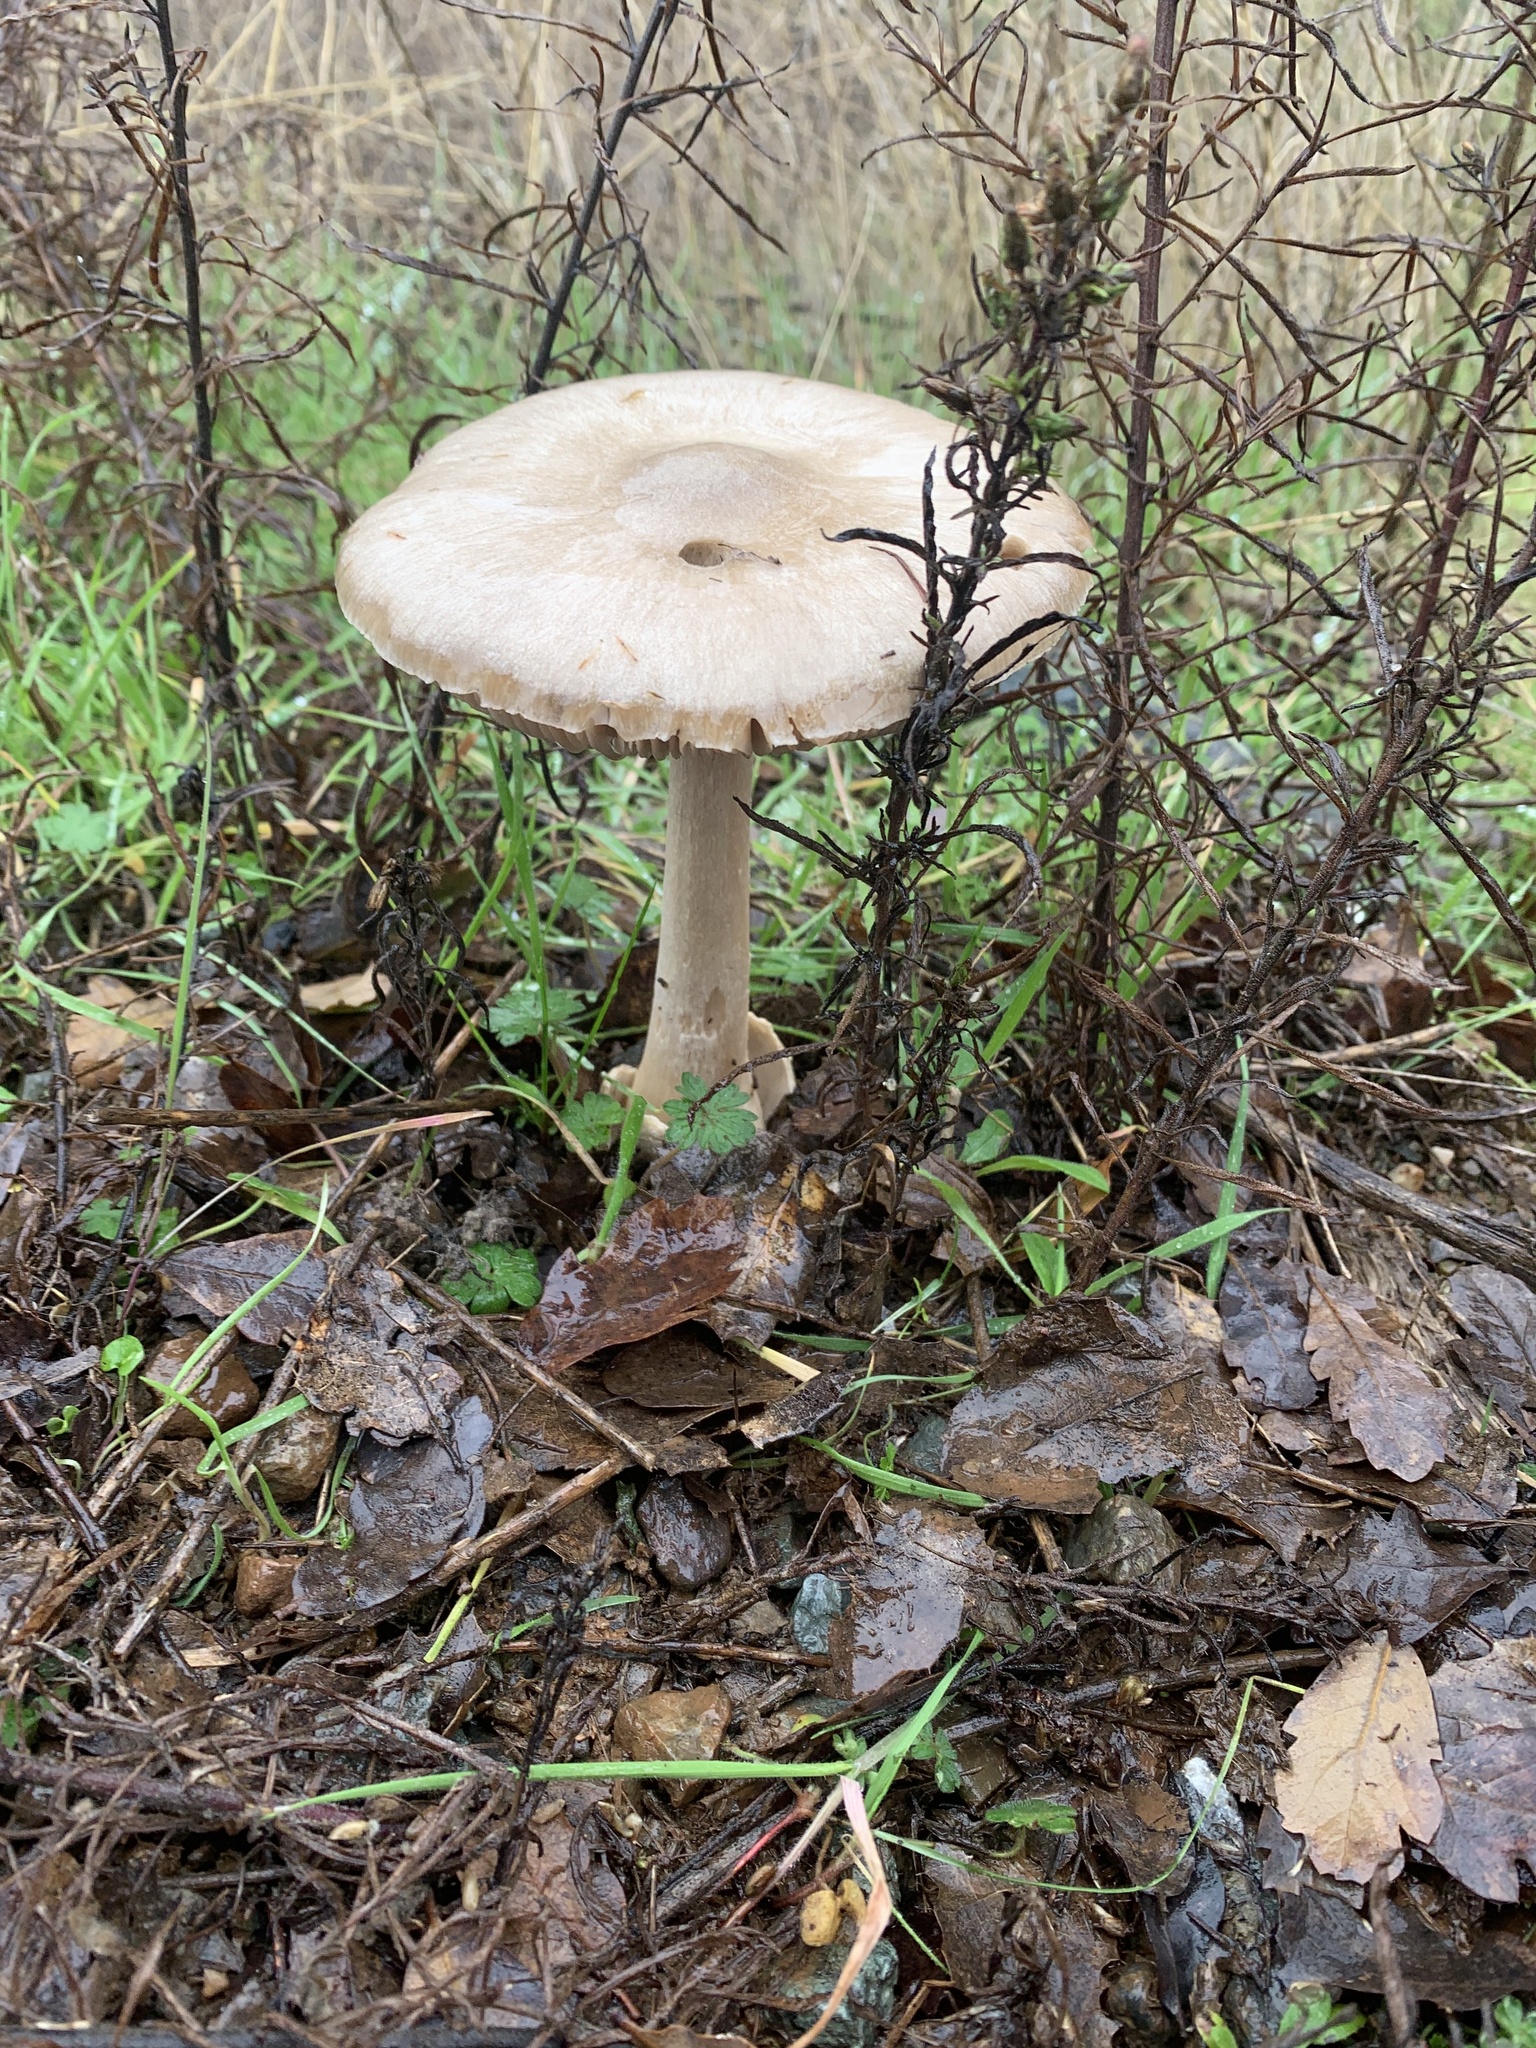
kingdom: Fungi
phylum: Basidiomycota
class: Agaricomycetes
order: Agaricales
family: Pluteaceae
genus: Volvopluteus
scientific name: Volvopluteus gloiocephalus
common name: Stubble rosegill
